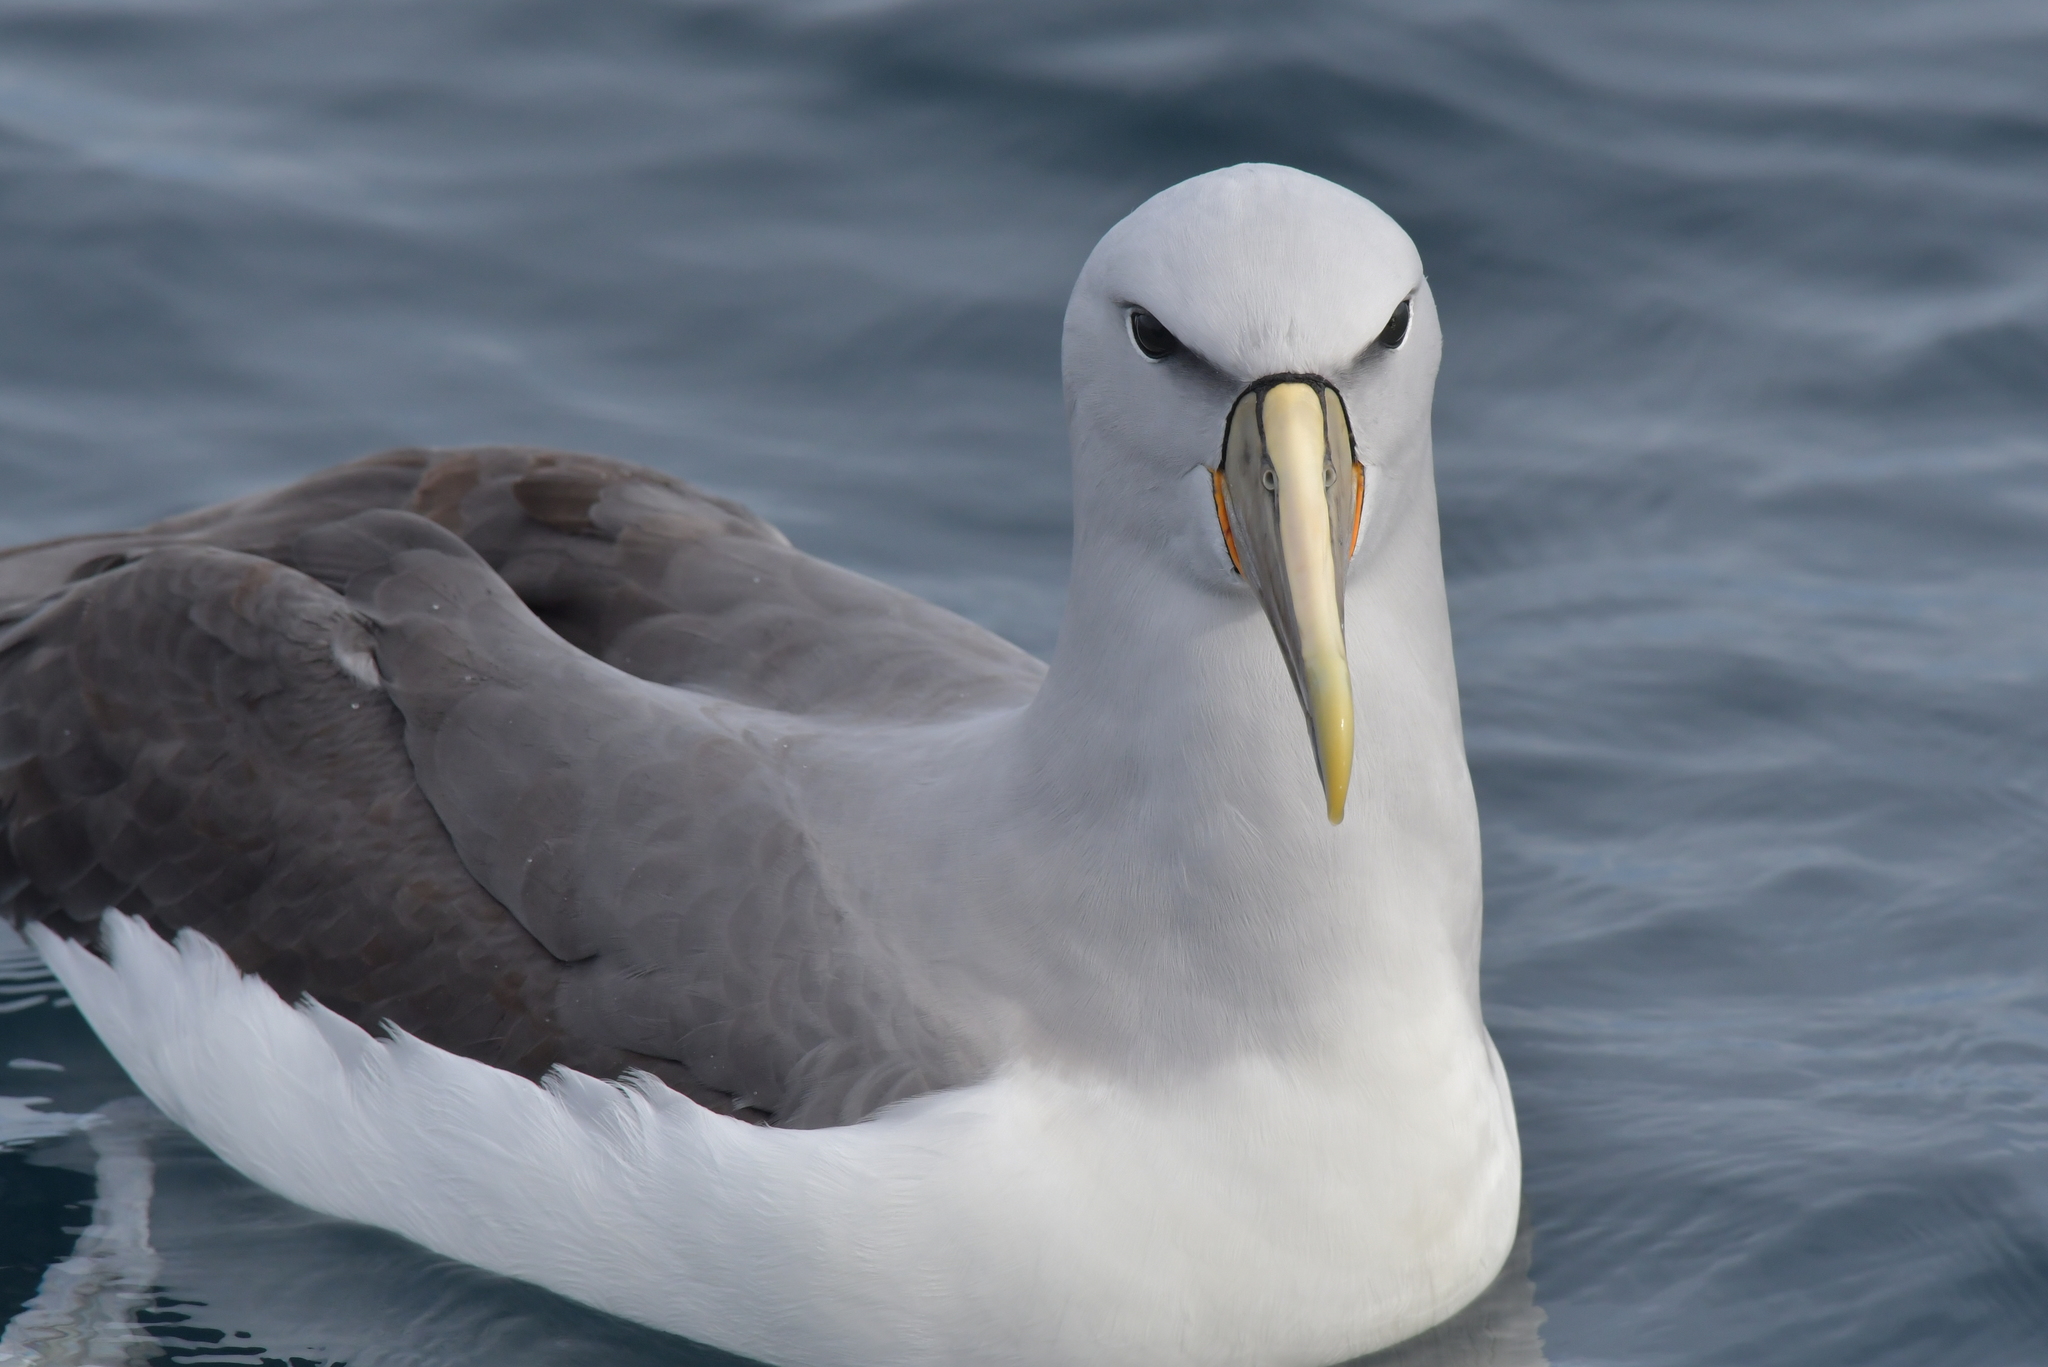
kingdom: Animalia
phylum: Chordata
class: Aves
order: Procellariiformes
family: Diomedeidae
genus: Thalassarche
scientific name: Thalassarche salvini
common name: Salvin's albatross
